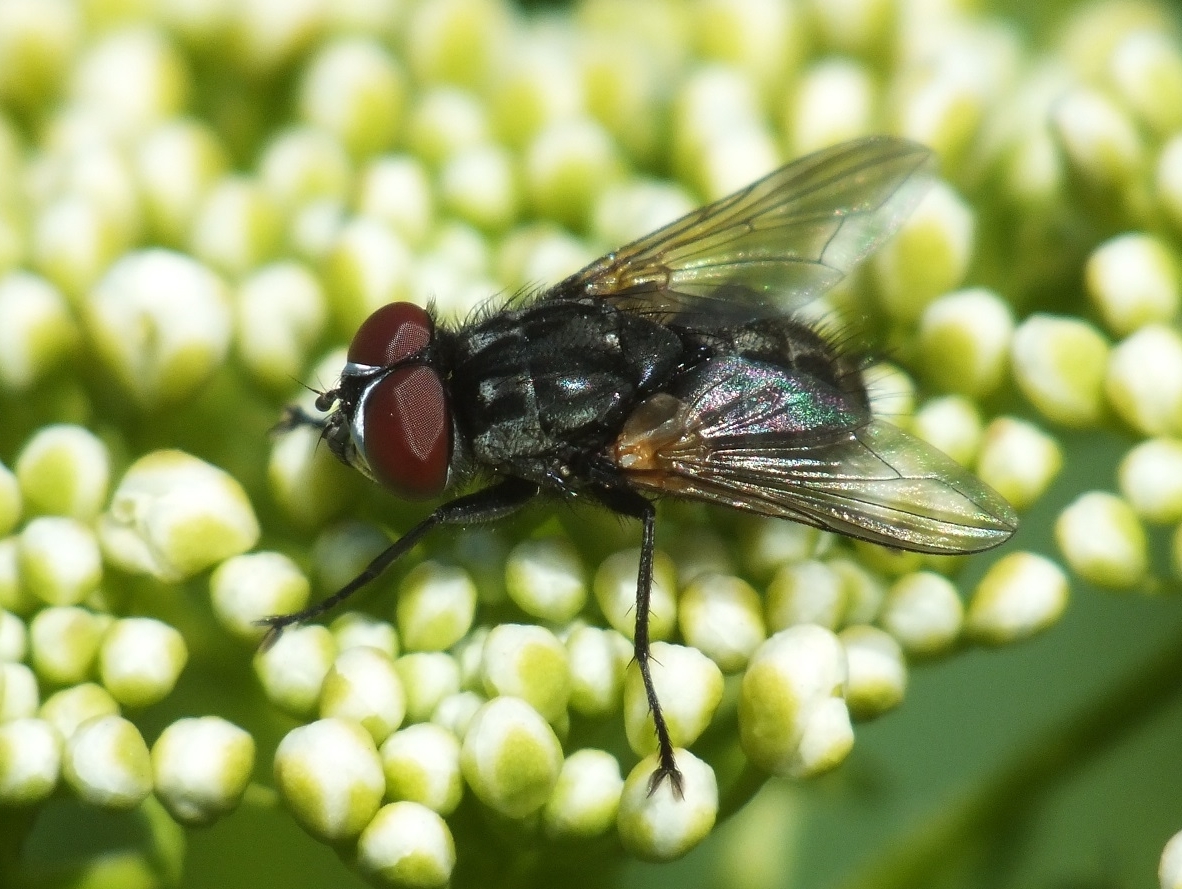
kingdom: Animalia
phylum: Arthropoda
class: Insecta
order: Diptera
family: Muscidae
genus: Graphomya
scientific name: Graphomya minor
